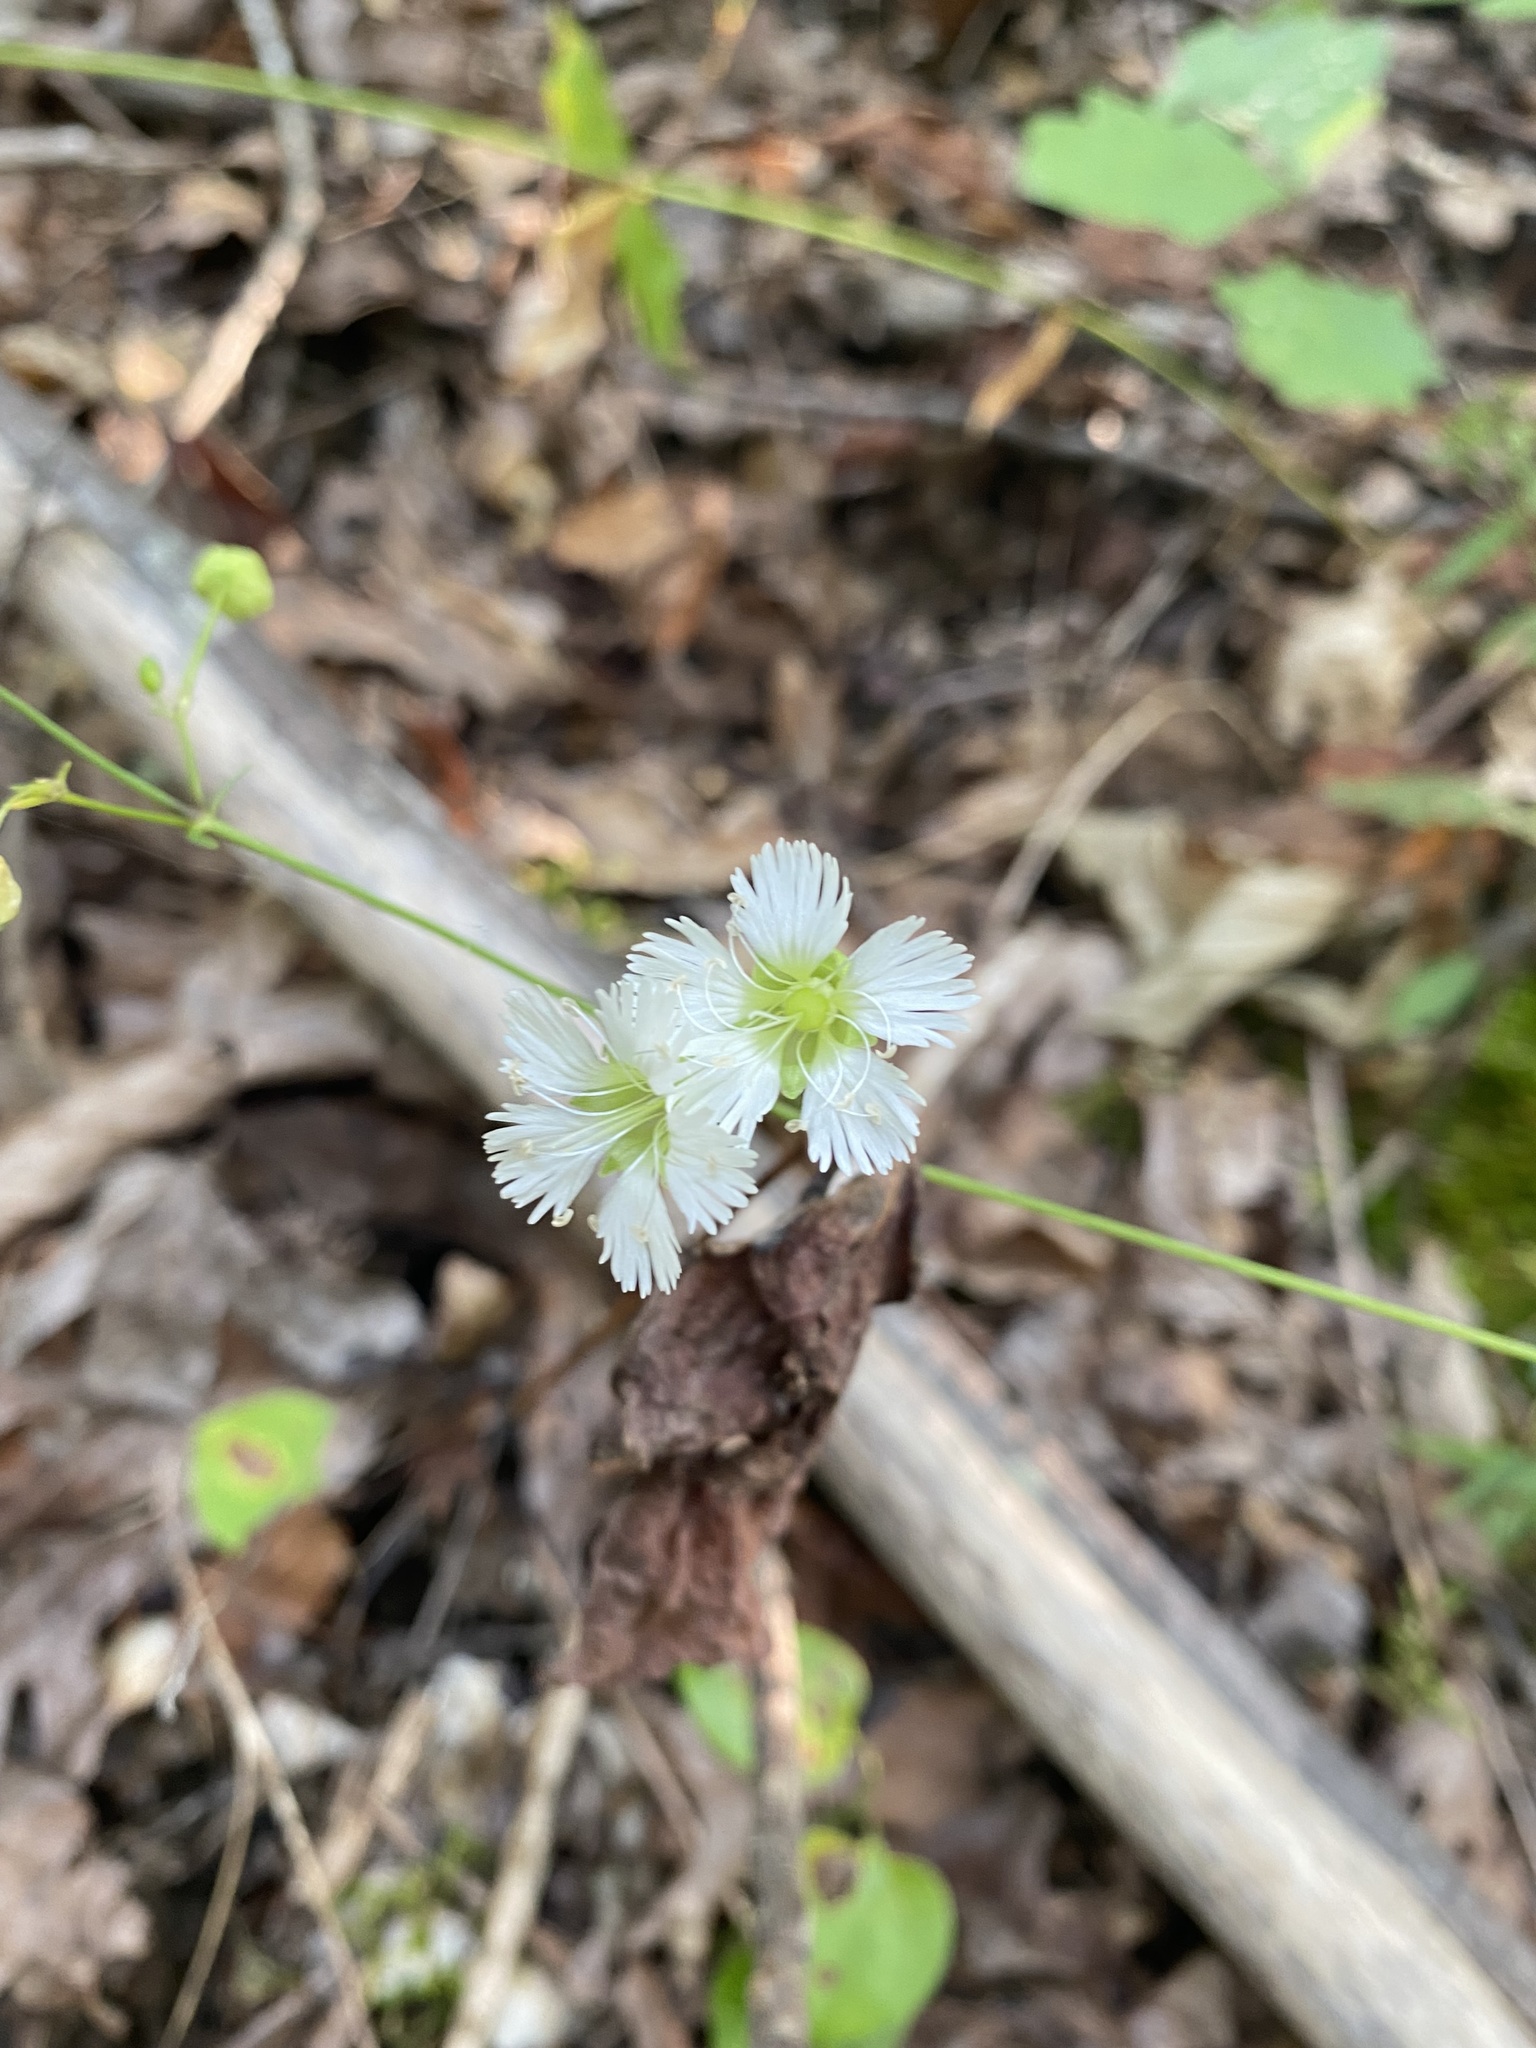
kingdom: Plantae
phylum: Tracheophyta
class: Magnoliopsida
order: Caryophyllales
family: Caryophyllaceae
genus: Silene
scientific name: Silene stellata
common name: Starry campion
